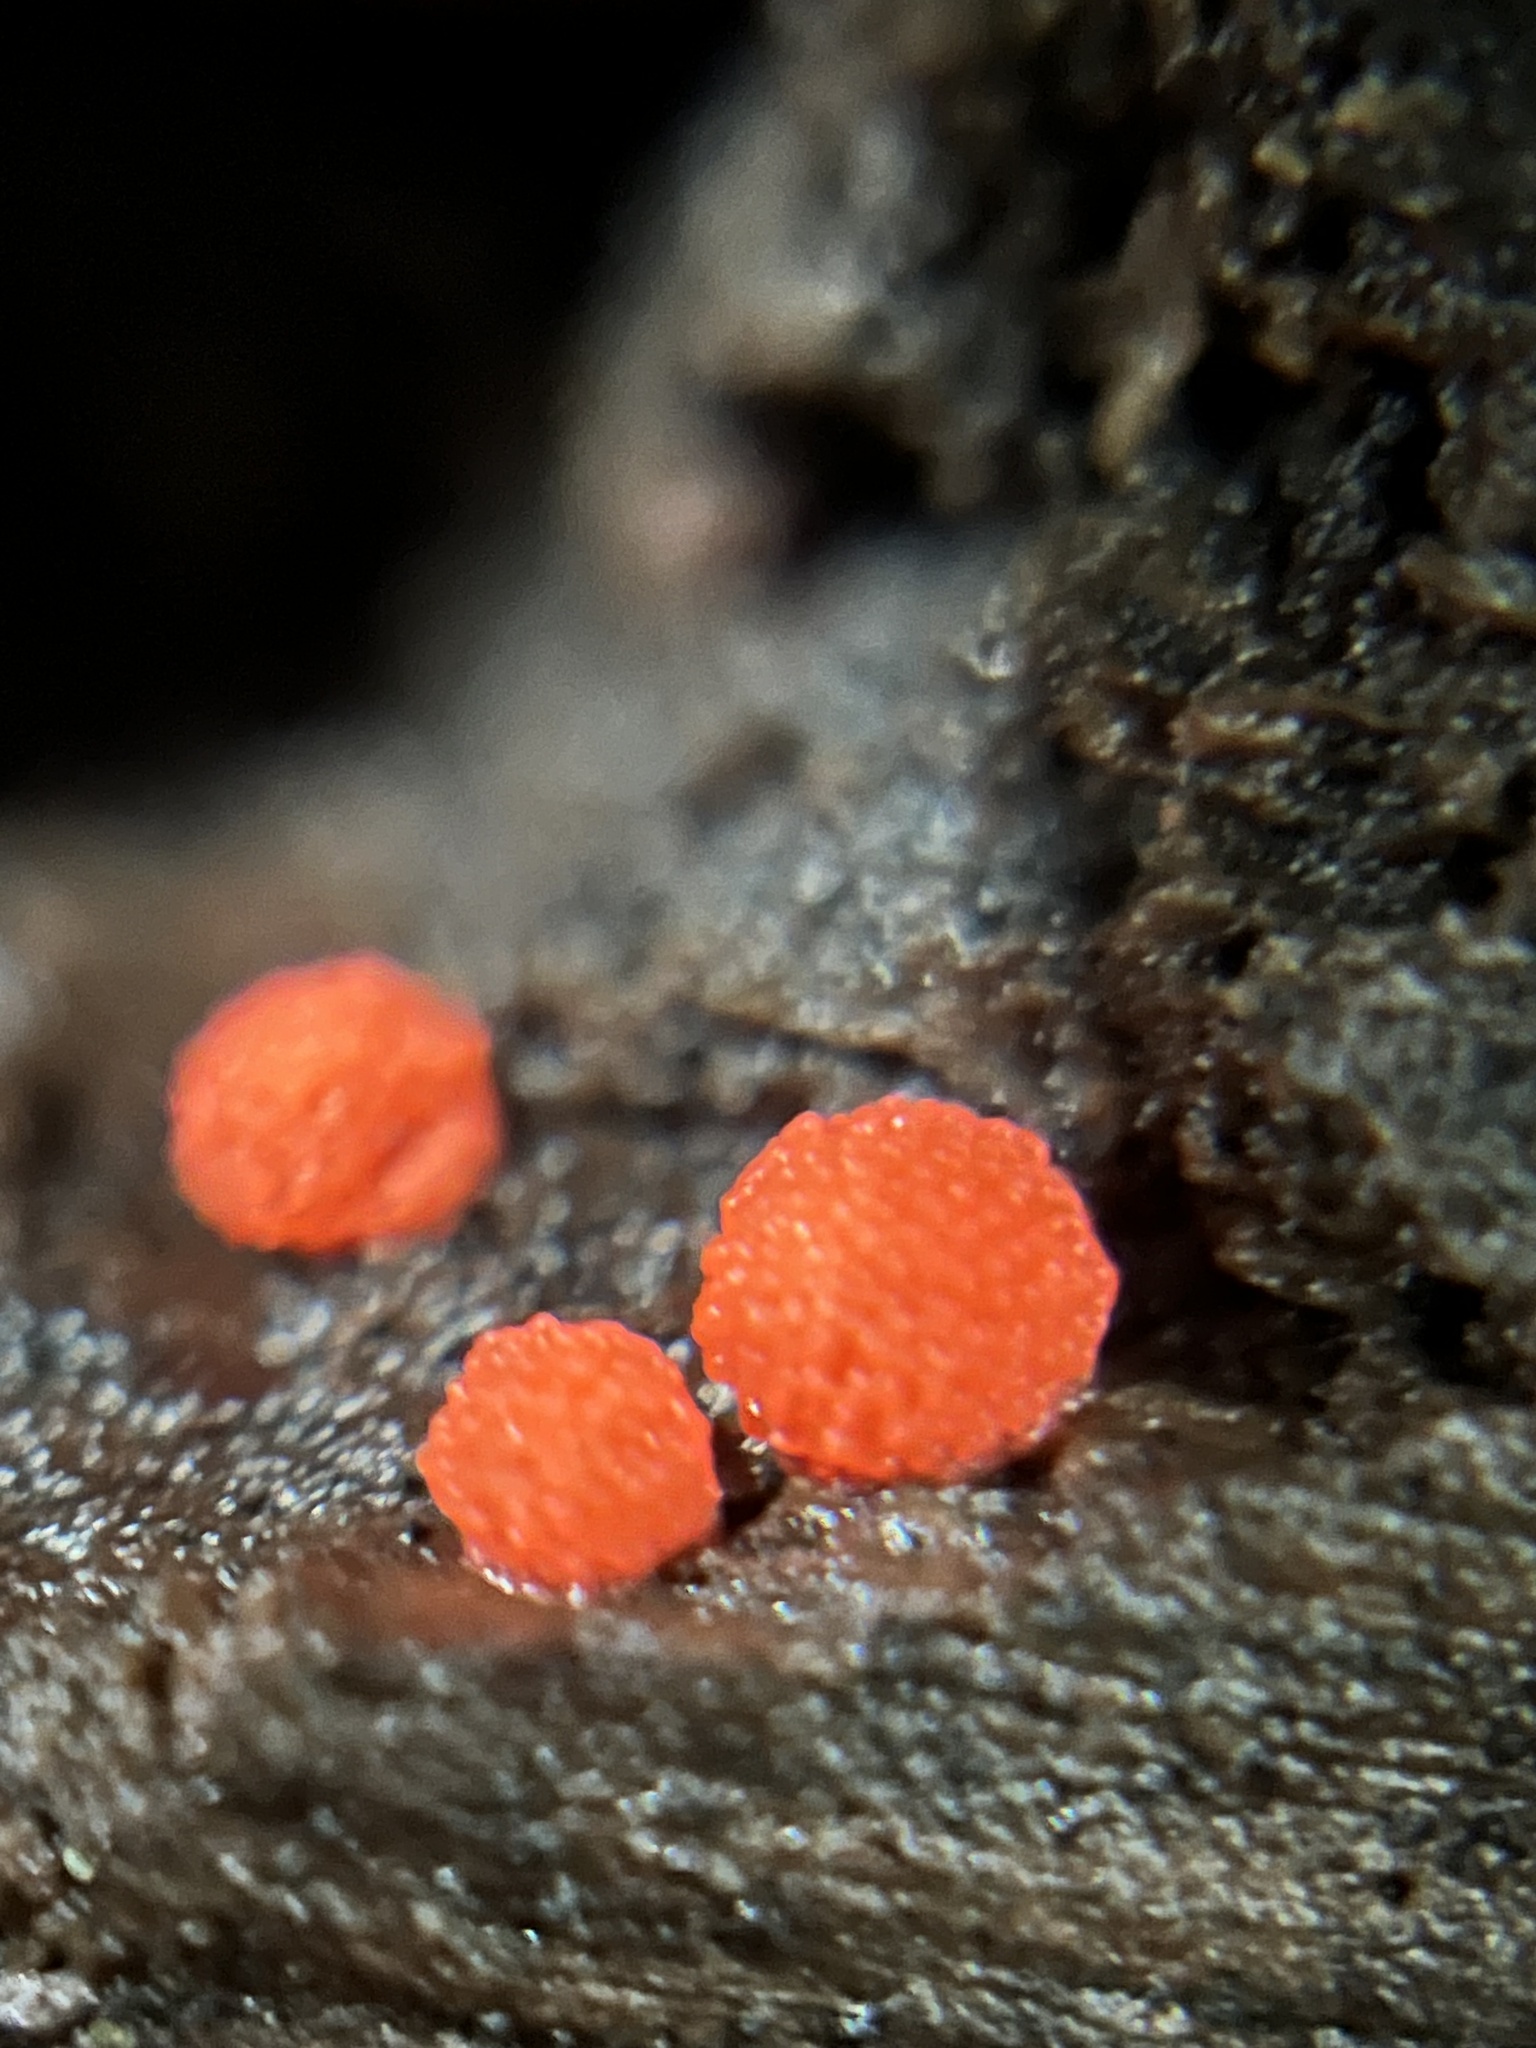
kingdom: Protozoa
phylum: Mycetozoa
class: Myxomycetes
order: Cribrariales
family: Tubiferaceae
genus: Tubifera
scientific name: Tubifera ferruginosa
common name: Red raspberry slime mold
